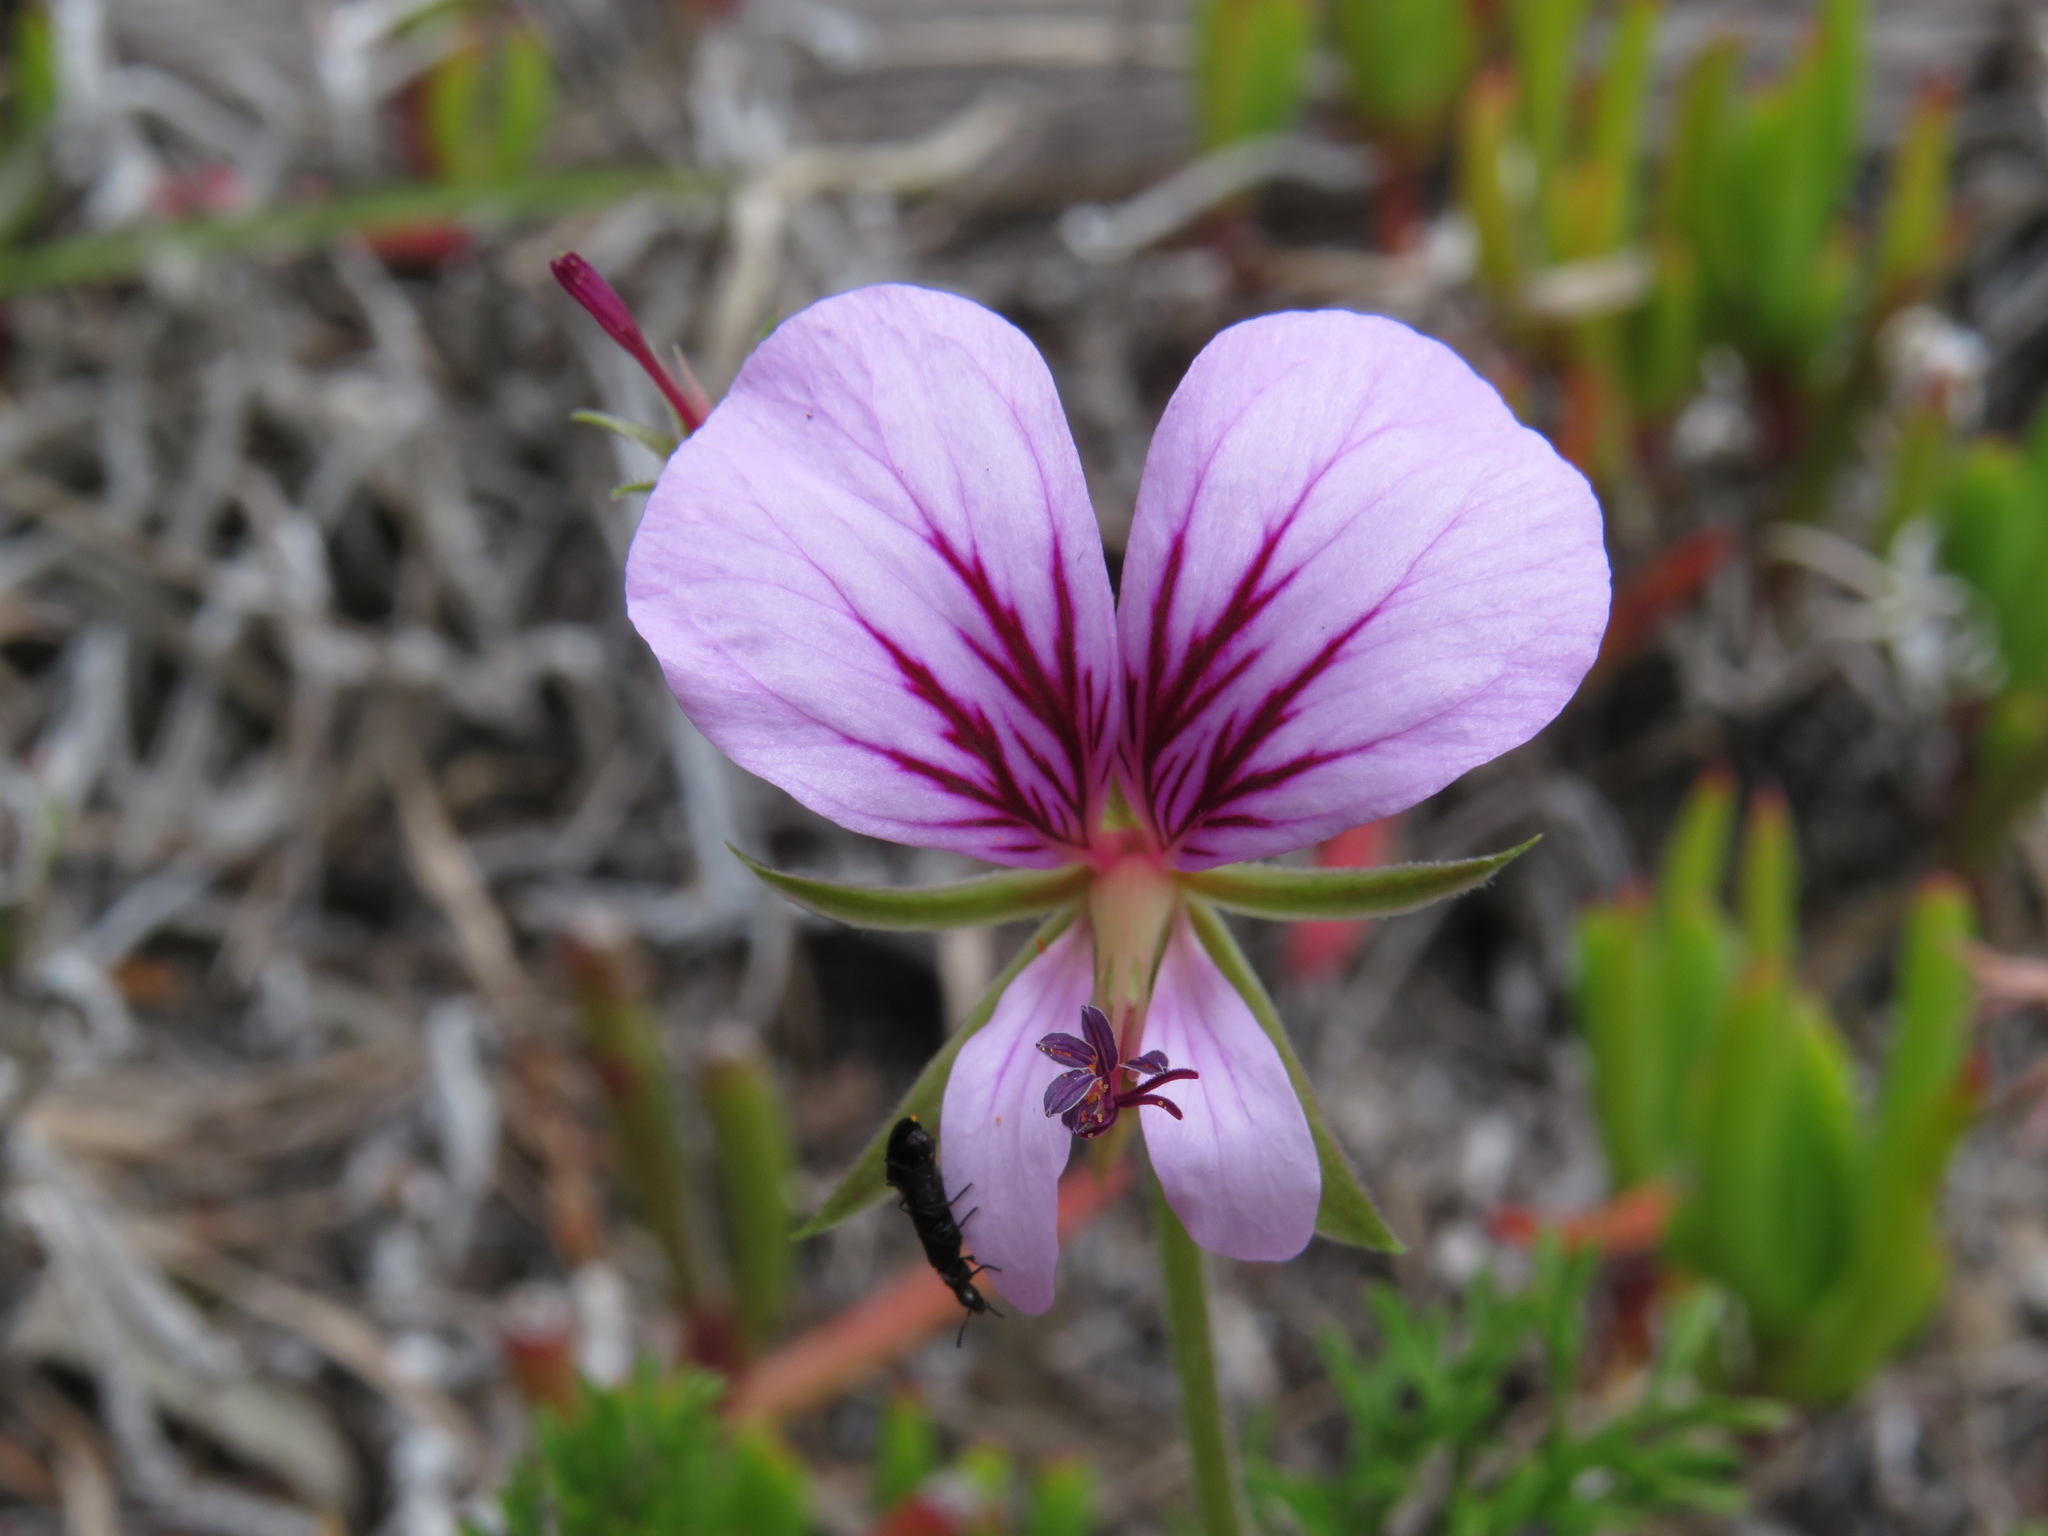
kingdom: Plantae
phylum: Tracheophyta
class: Magnoliopsida
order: Geraniales
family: Geraniaceae
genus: Pelargonium
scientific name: Pelargonium myrrhifolium
